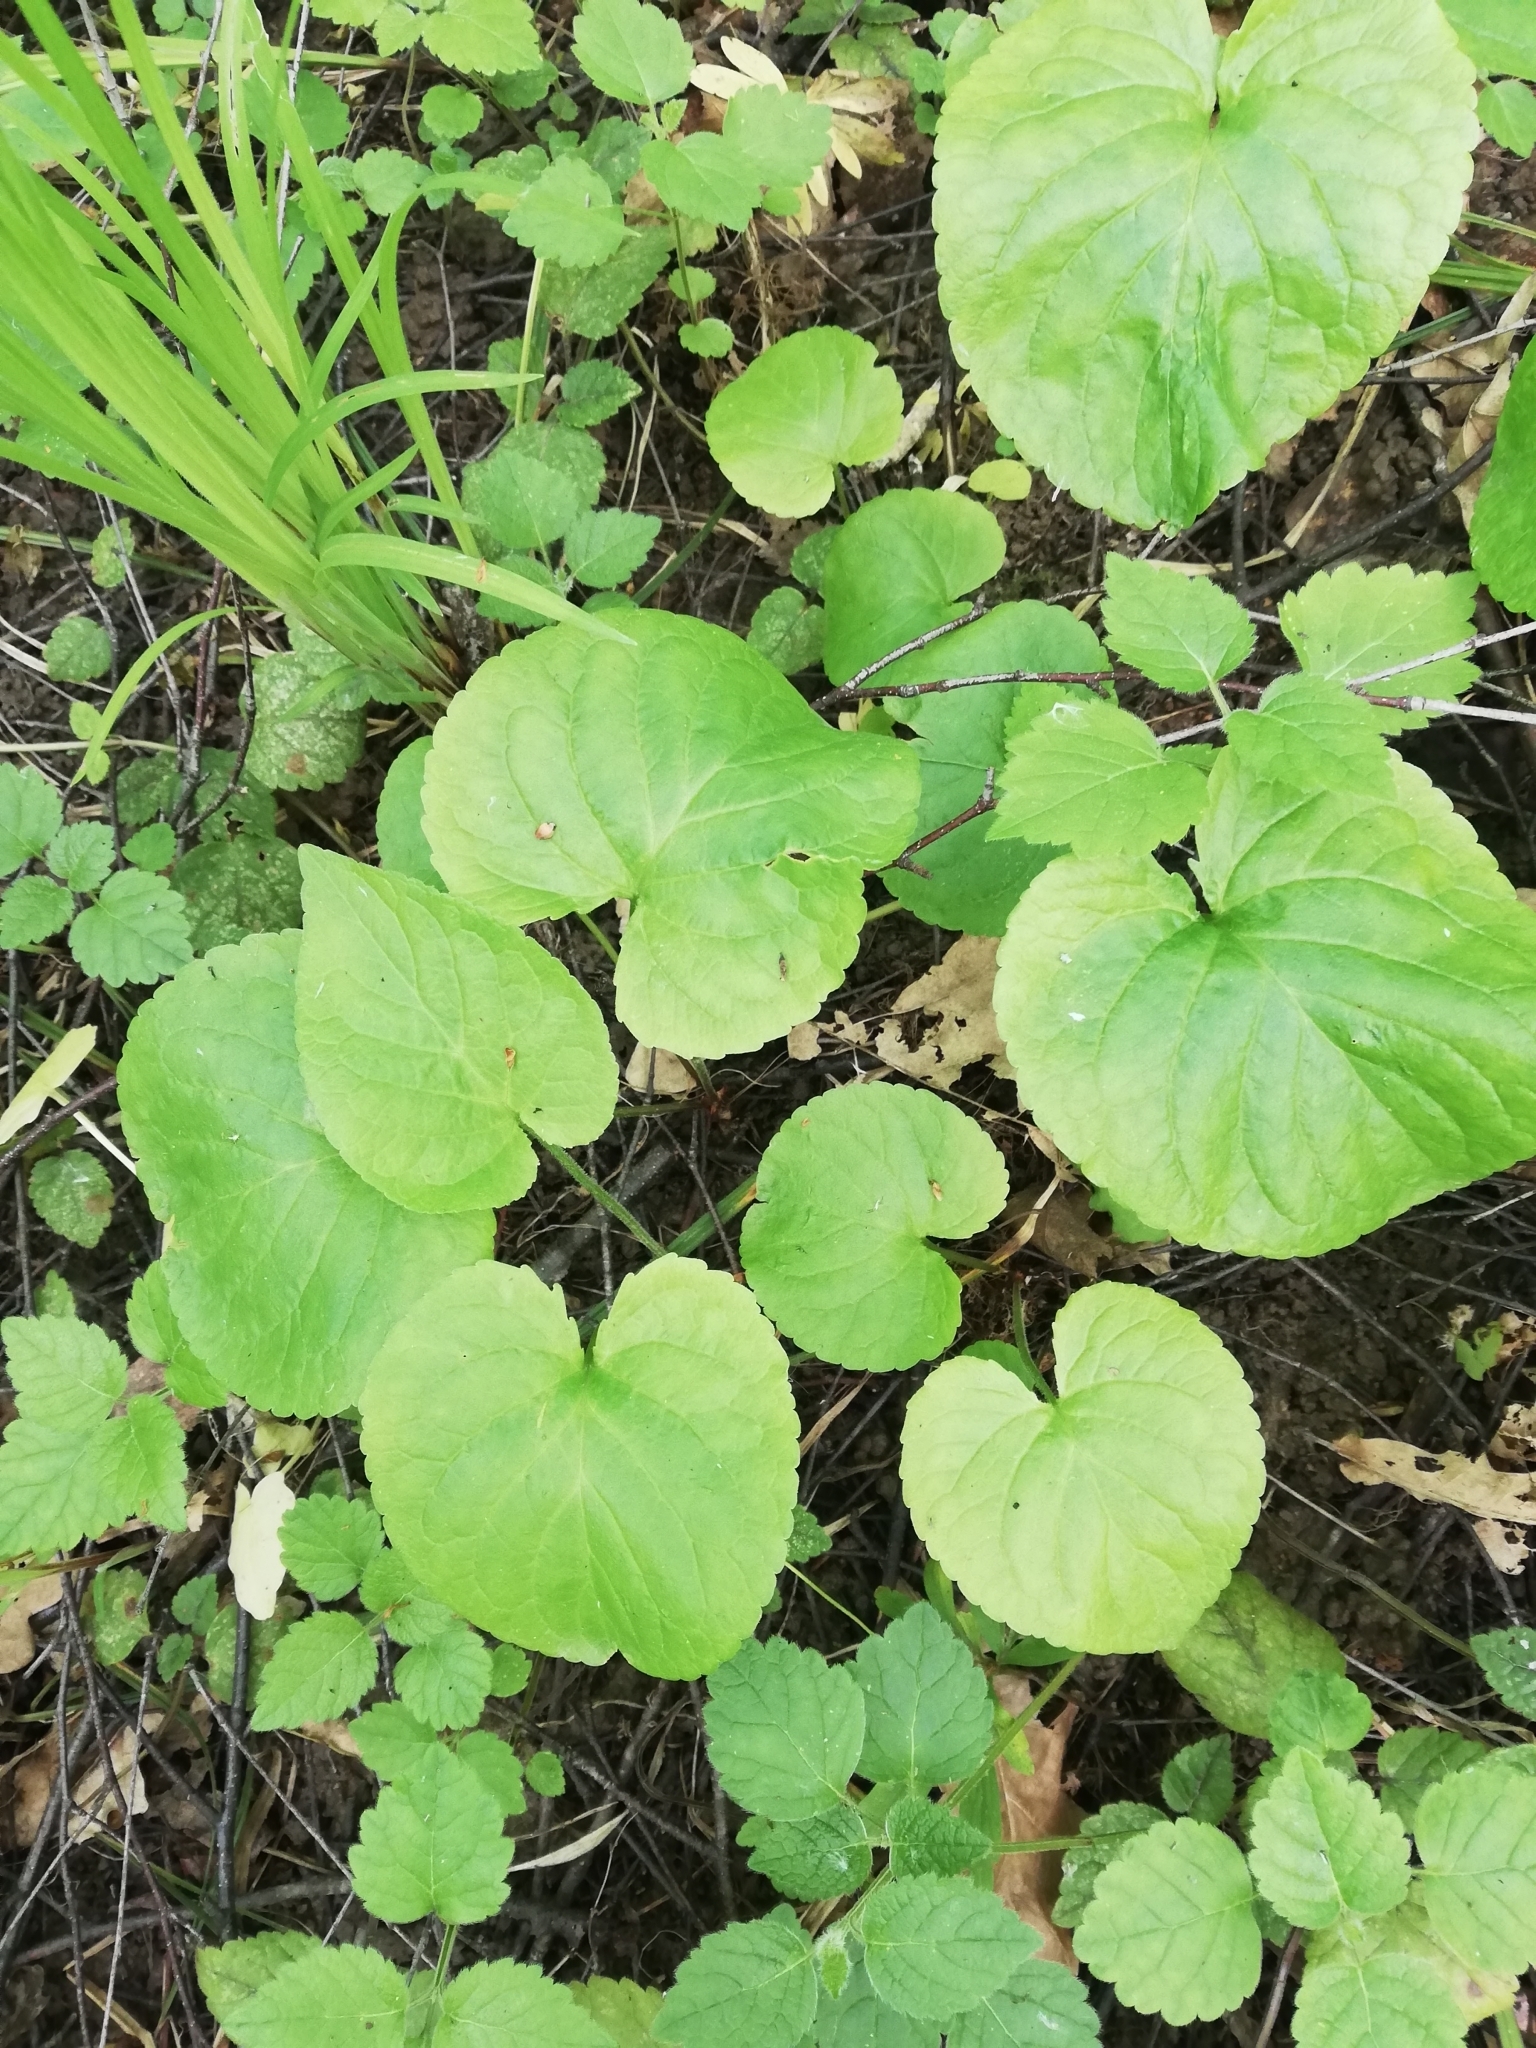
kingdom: Plantae
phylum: Tracheophyta
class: Magnoliopsida
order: Malpighiales
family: Violaceae
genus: Viola
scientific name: Viola mirabilis
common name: Wonder violet
